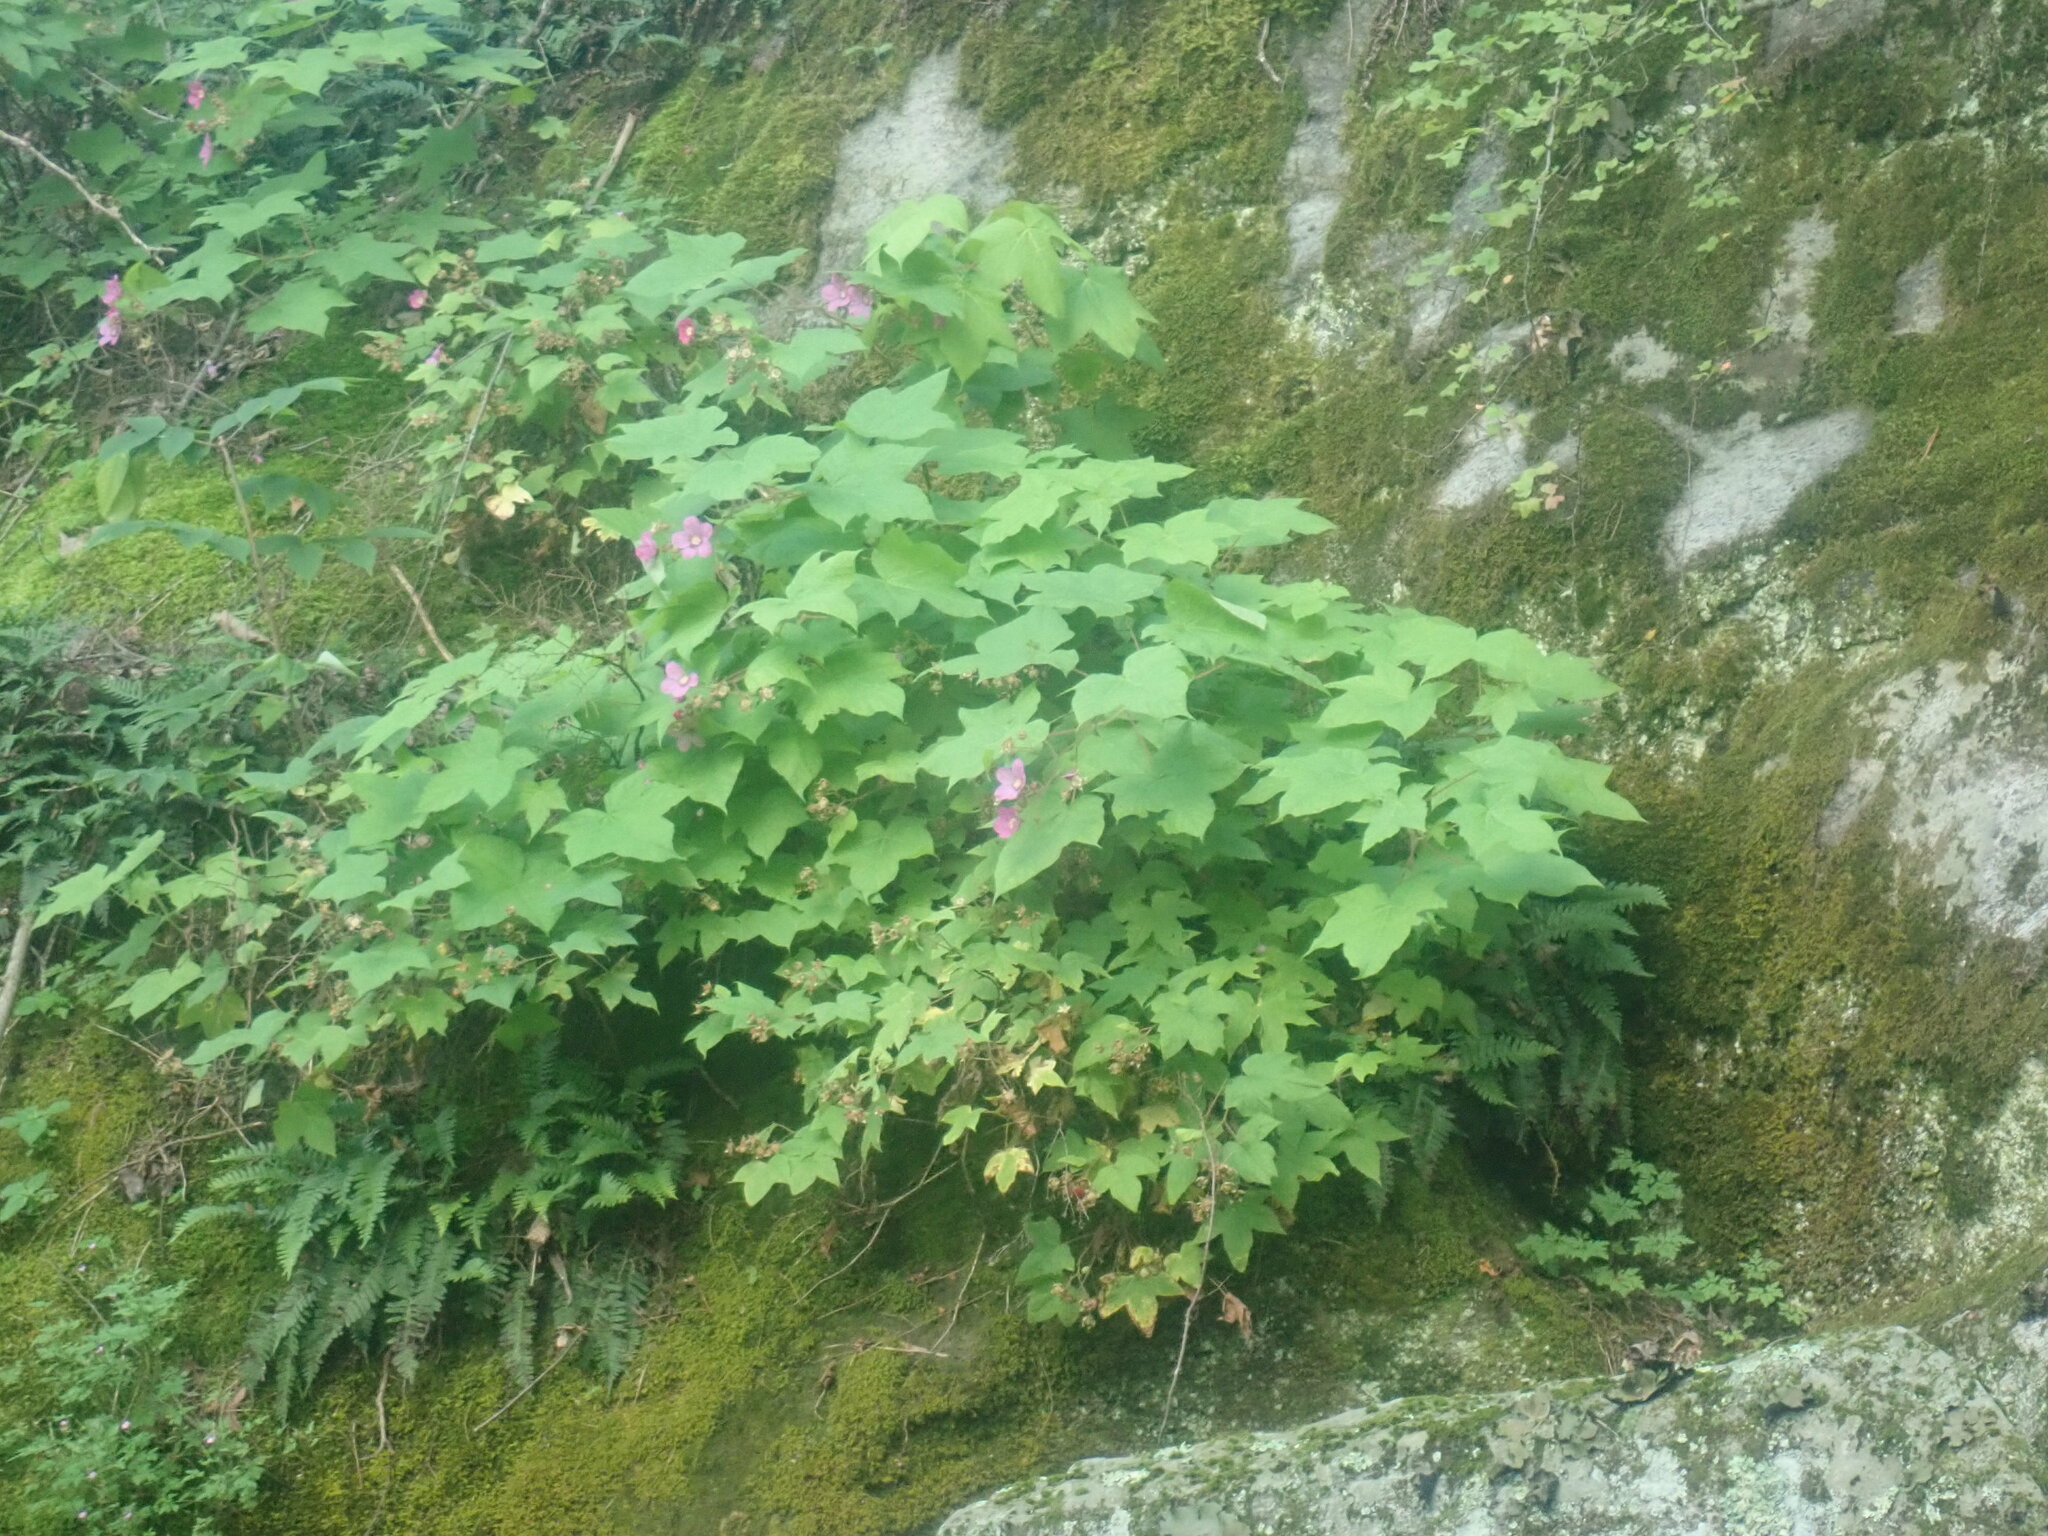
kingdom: Plantae
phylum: Tracheophyta
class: Magnoliopsida
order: Rosales
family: Rosaceae
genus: Rubus
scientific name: Rubus odoratus
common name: Purple-flowered raspberry
